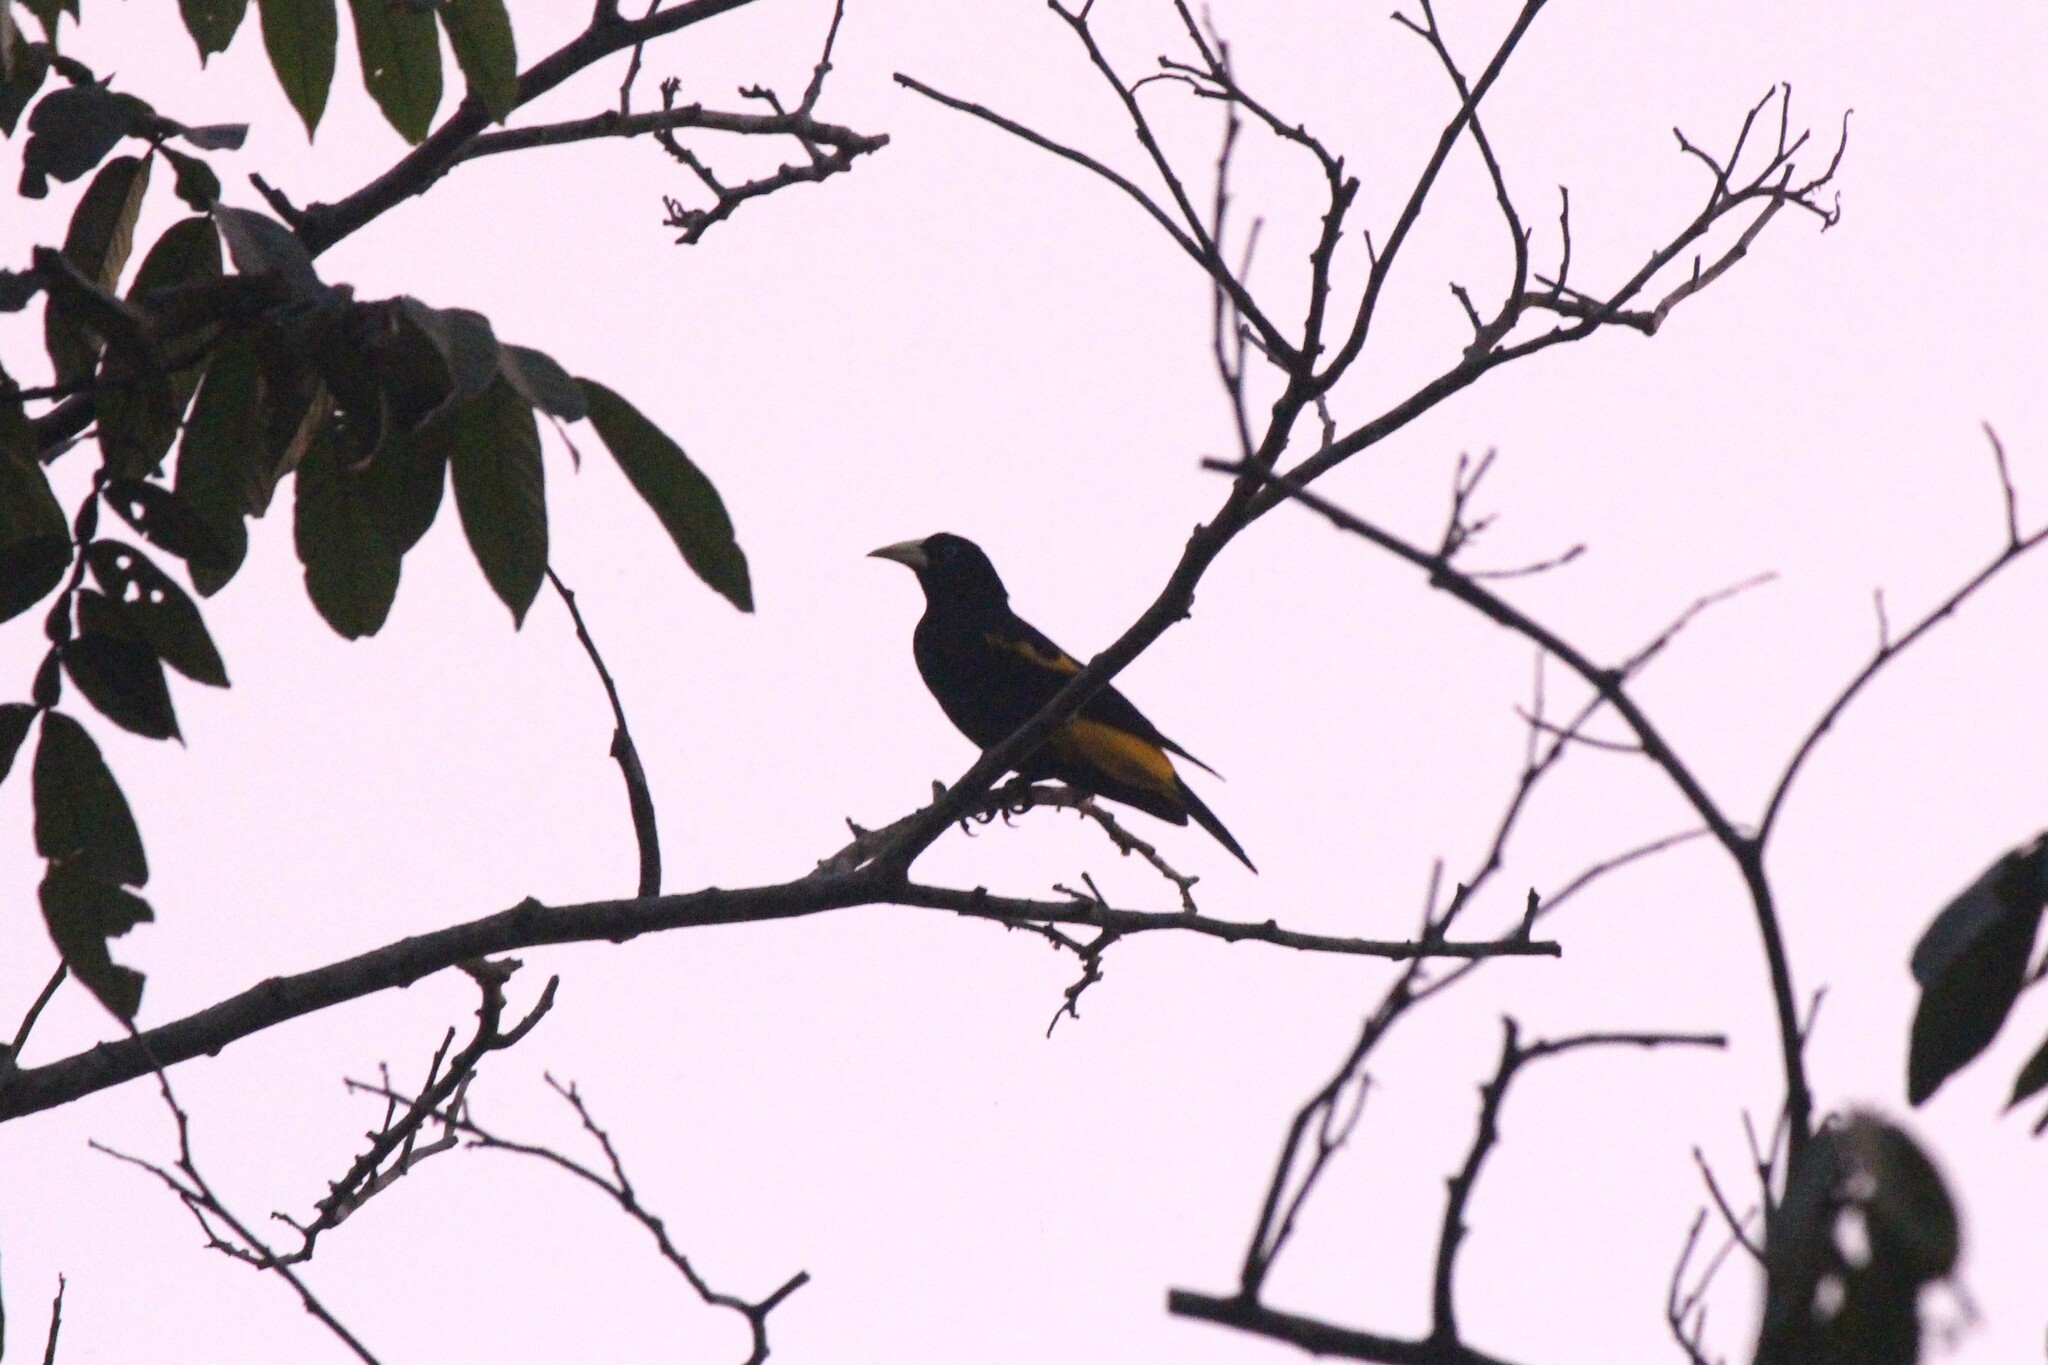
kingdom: Animalia
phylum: Chordata
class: Aves
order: Passeriformes
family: Icteridae
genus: Cacicus
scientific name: Cacicus cela
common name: Yellow-rumped cacique
